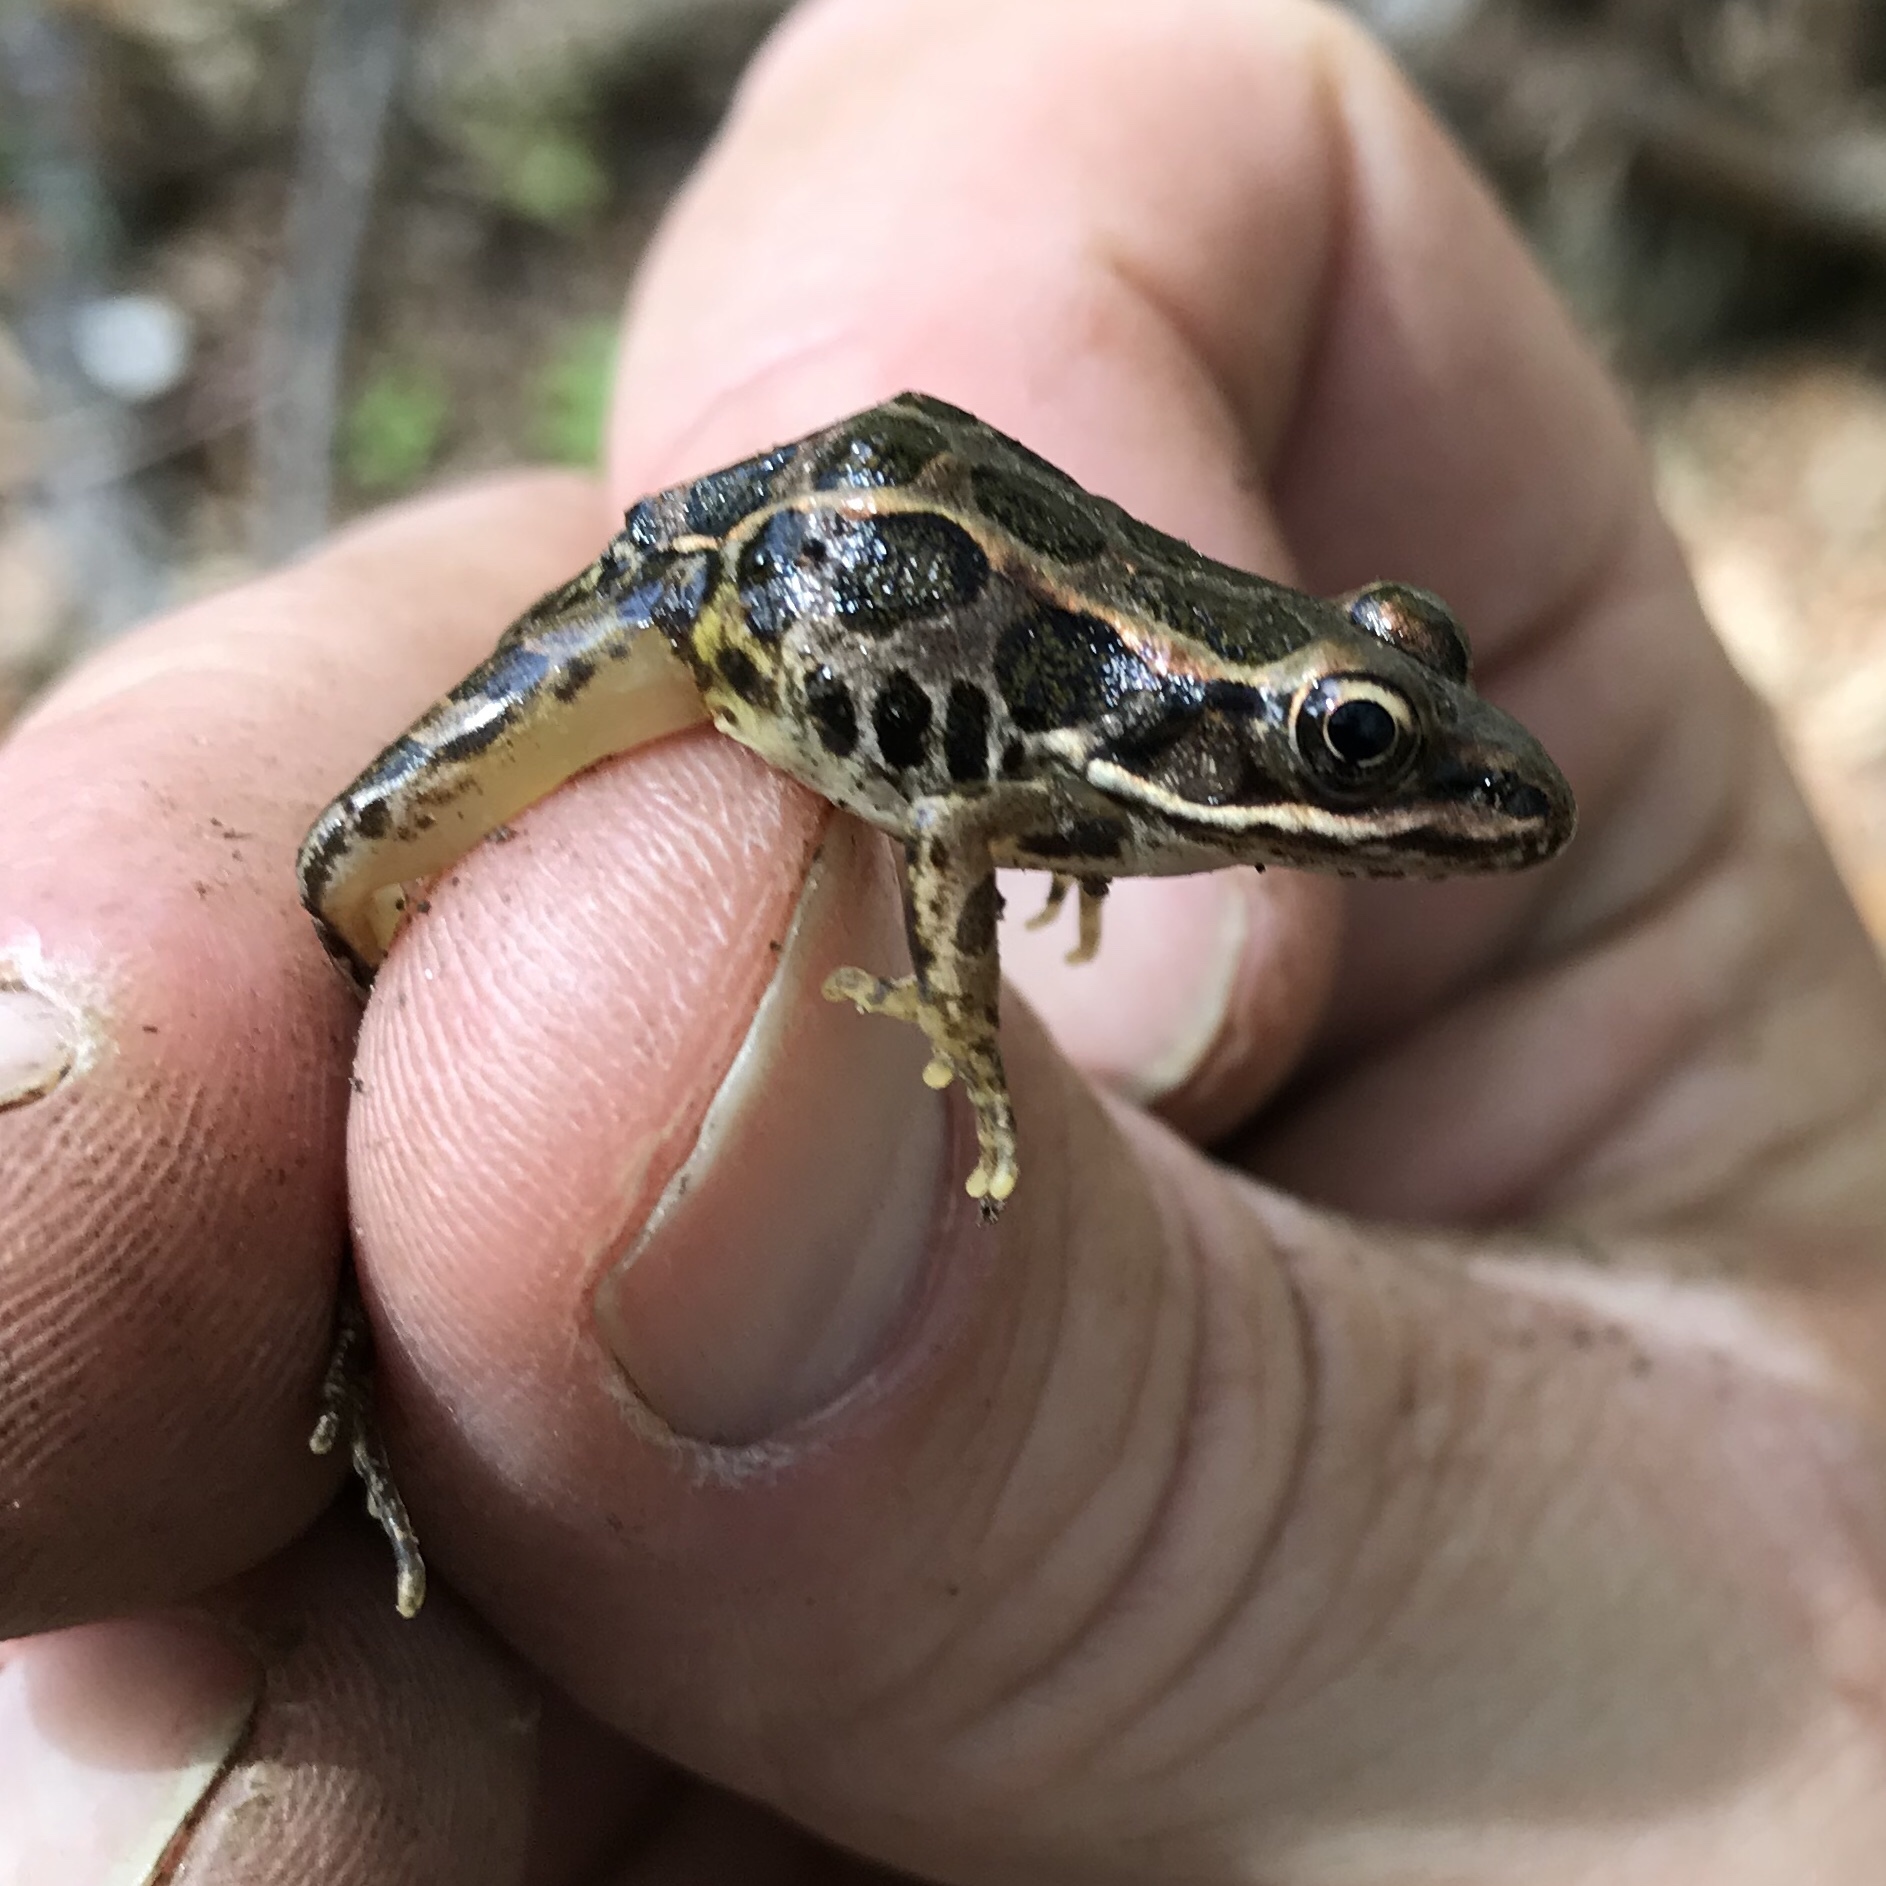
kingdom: Animalia
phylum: Chordata
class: Amphibia
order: Anura
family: Ranidae
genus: Lithobates
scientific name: Lithobates palustris
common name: Pickerel frog
